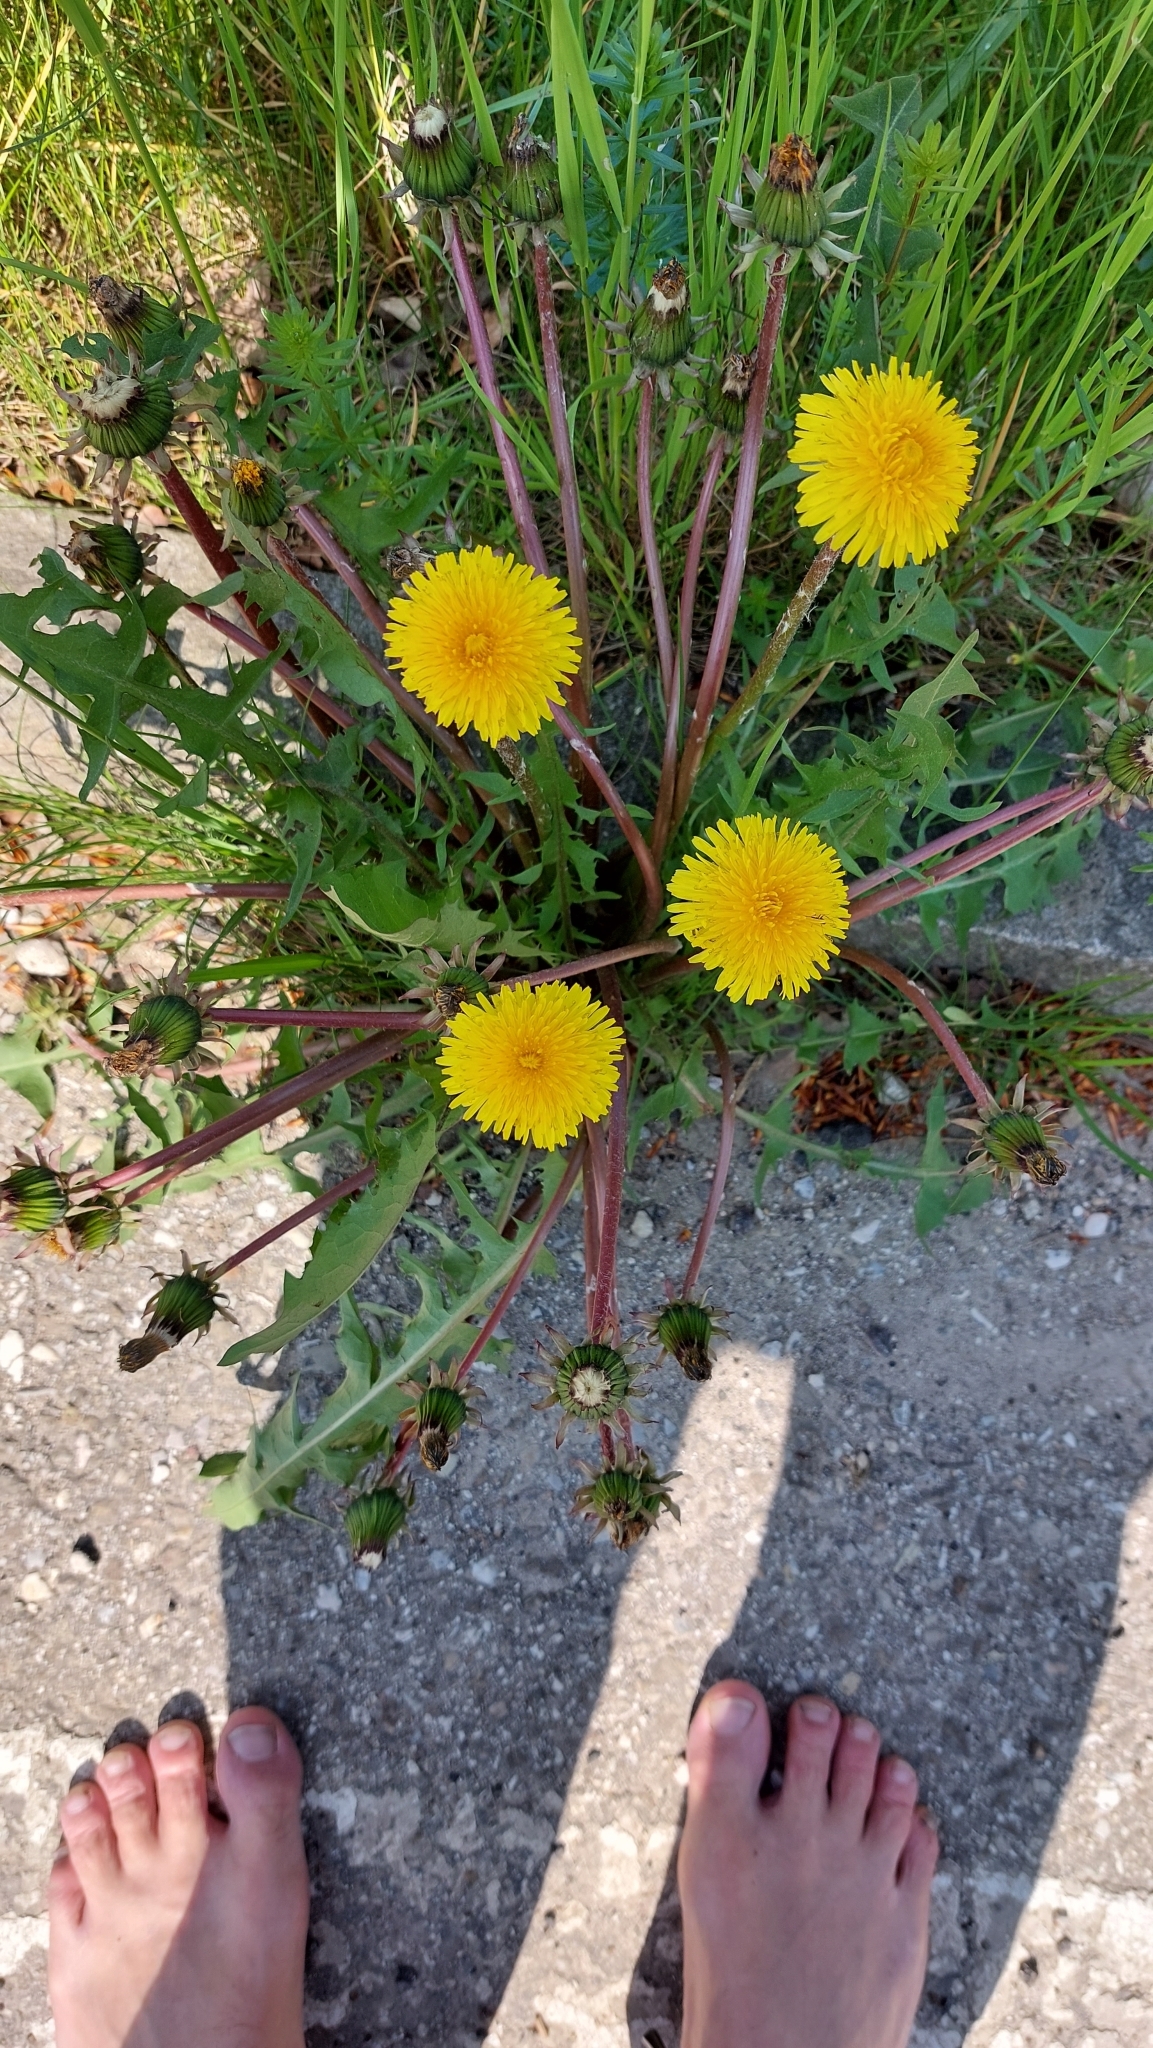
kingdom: Plantae
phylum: Tracheophyta
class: Magnoliopsida
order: Asterales
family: Asteraceae
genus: Taraxacum
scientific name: Taraxacum
